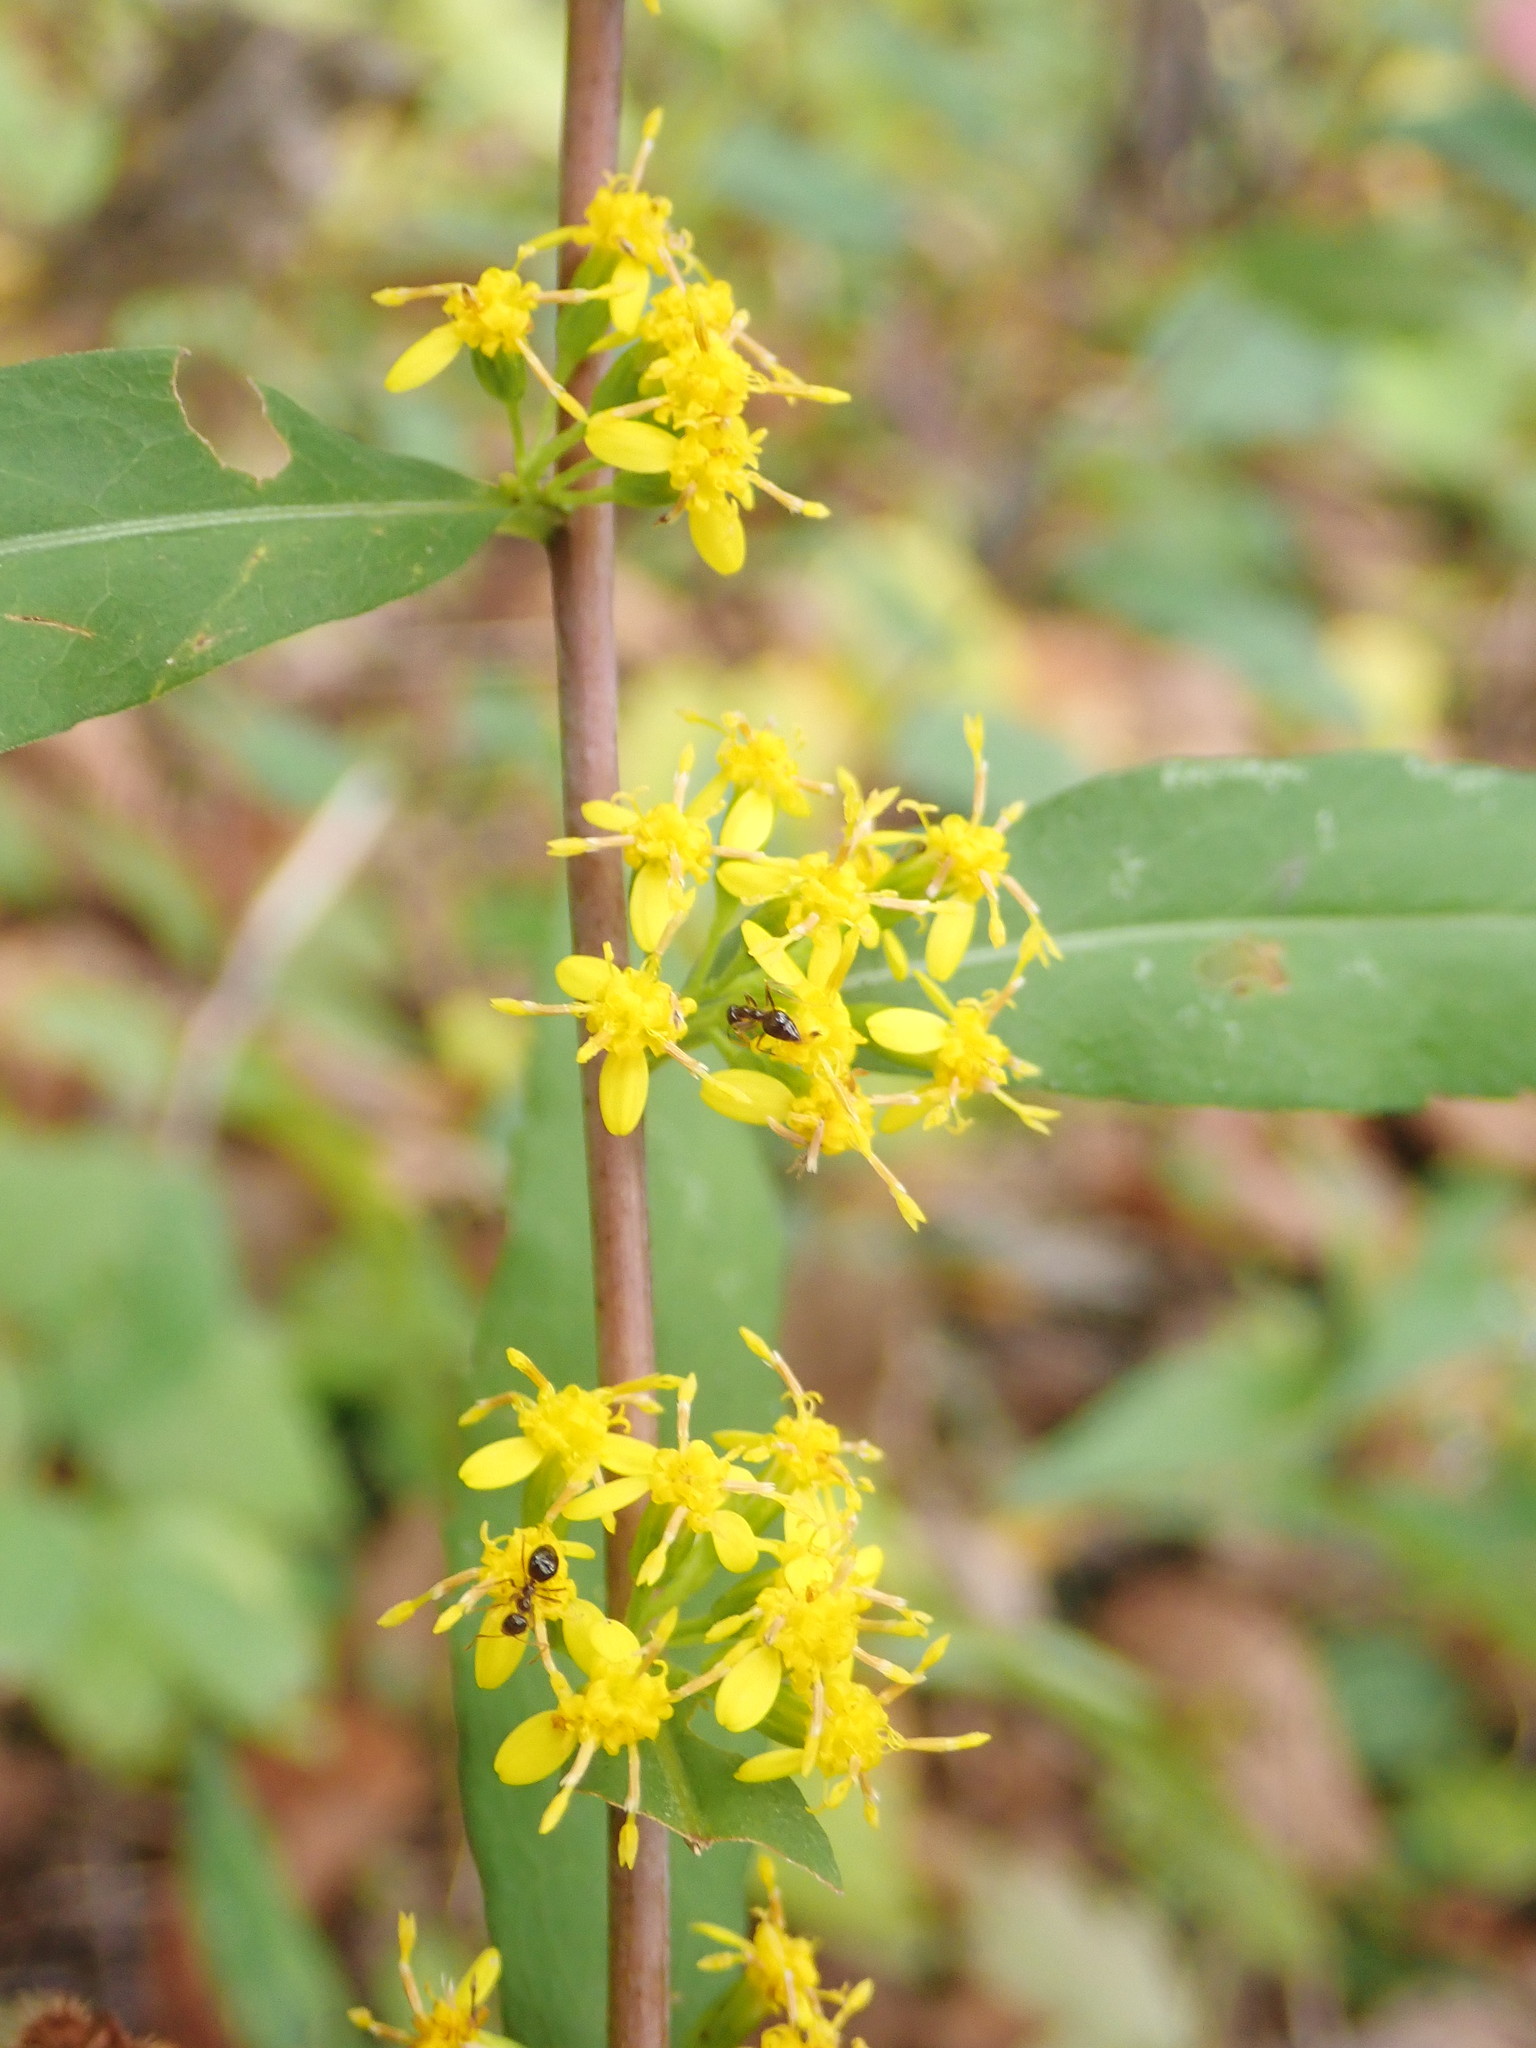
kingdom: Plantae
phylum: Tracheophyta
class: Magnoliopsida
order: Asterales
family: Asteraceae
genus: Solidago
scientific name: Solidago caesia
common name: Woodland goldenrod
